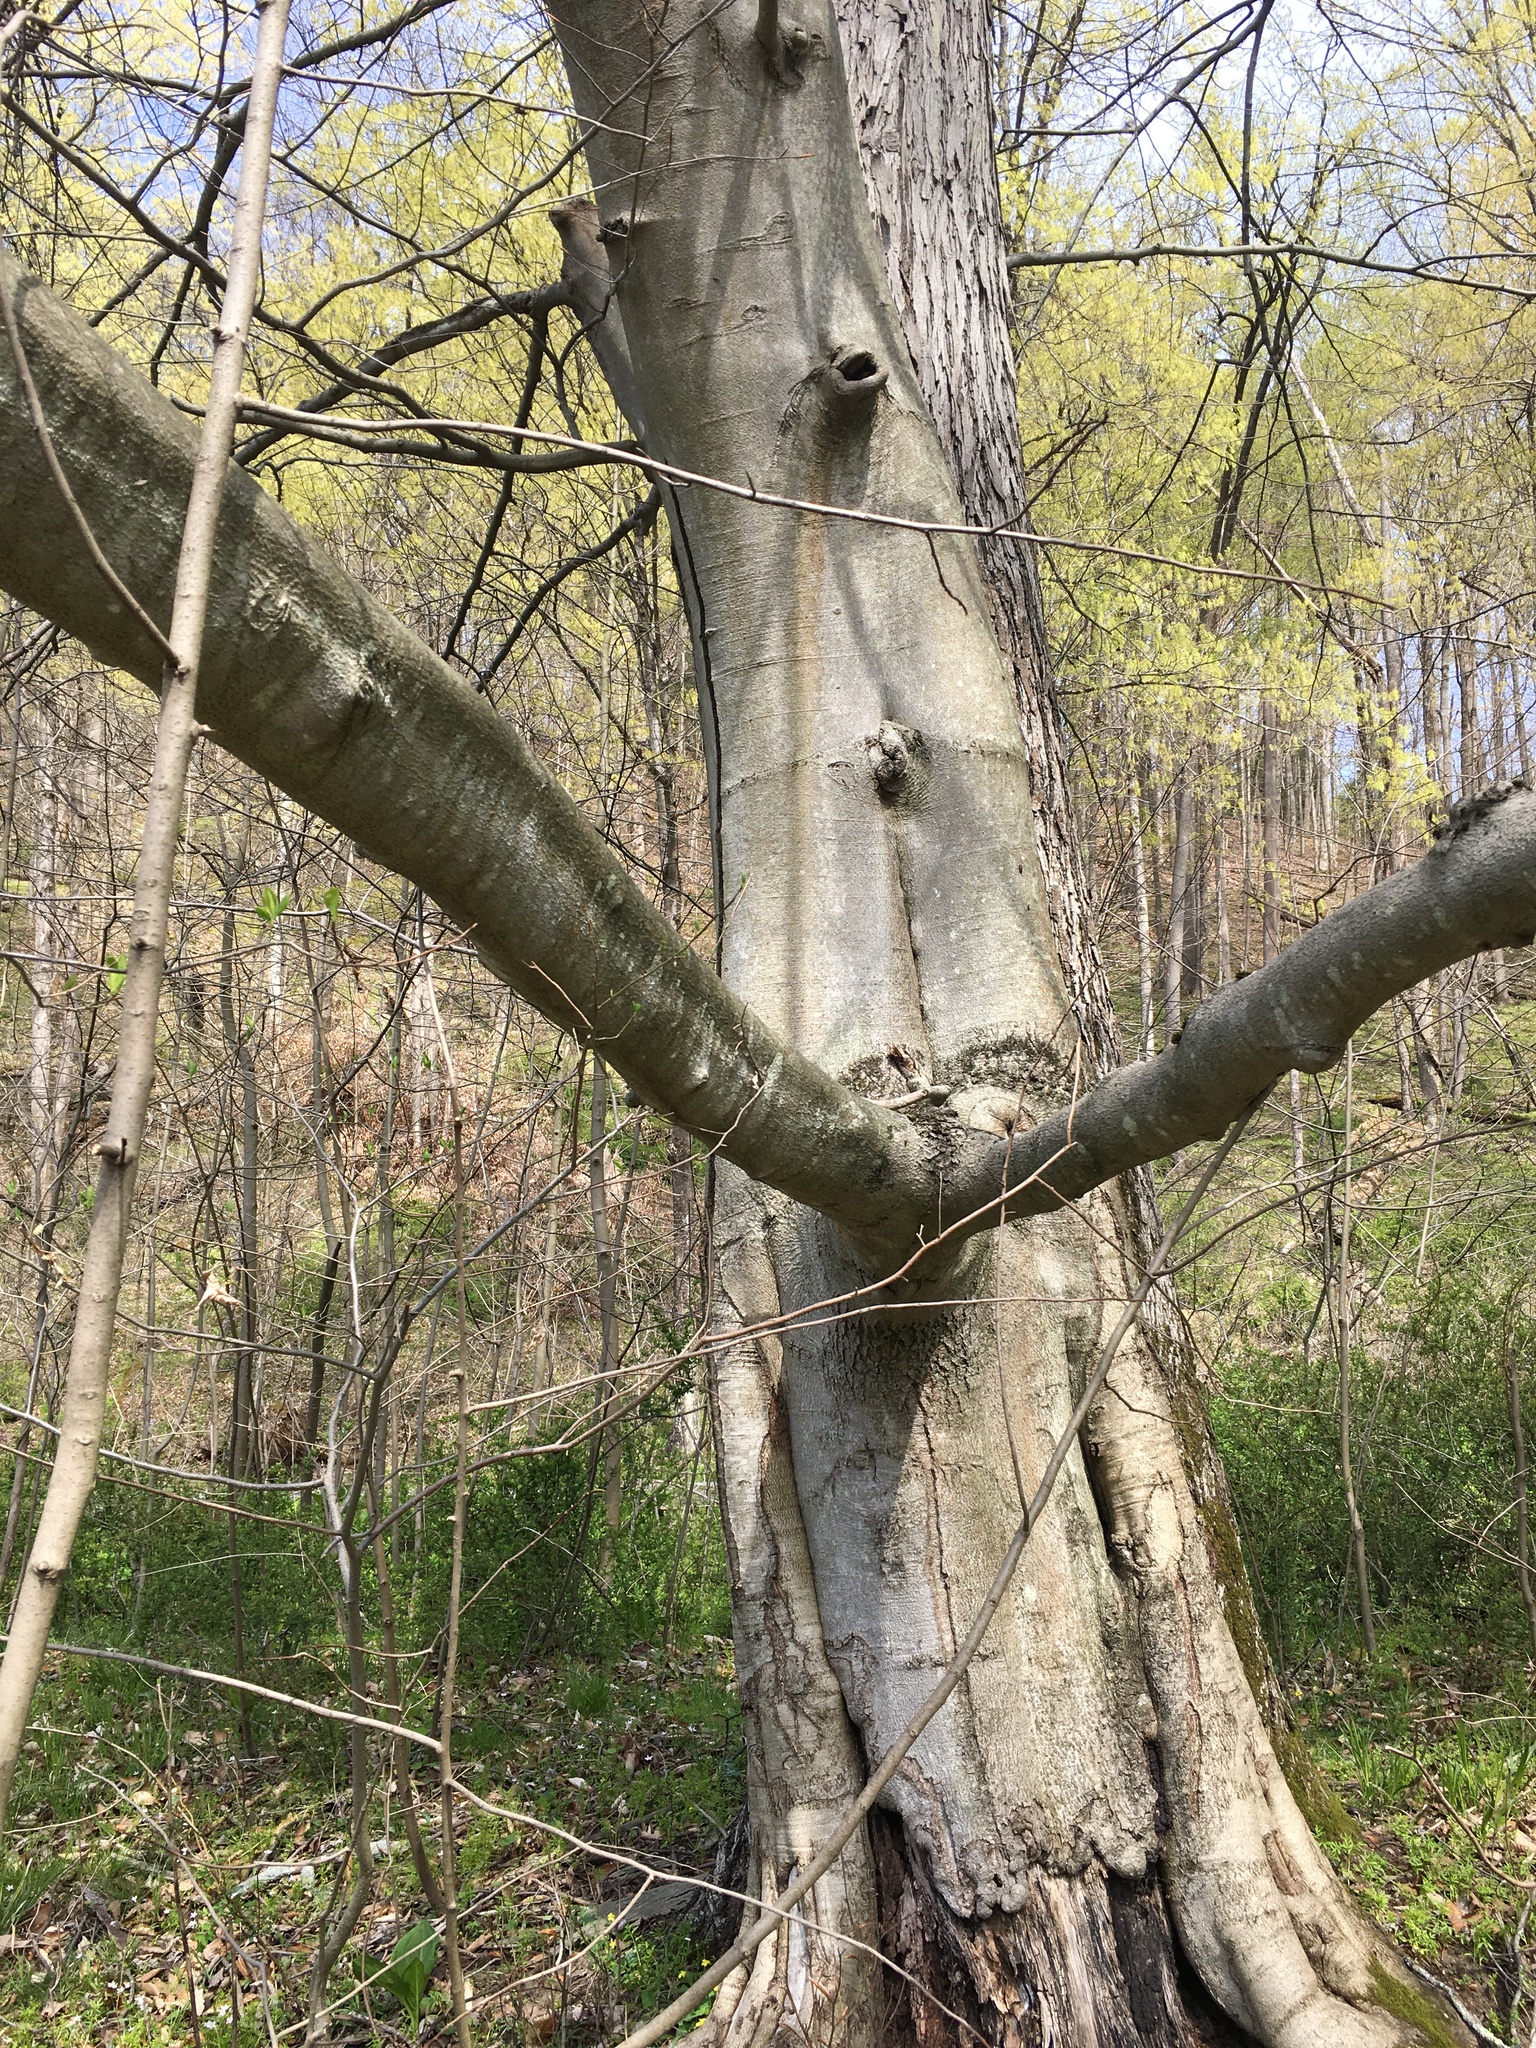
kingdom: Plantae
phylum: Tracheophyta
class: Magnoliopsida
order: Fagales
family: Fagaceae
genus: Fagus
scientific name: Fagus grandifolia
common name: American beech
